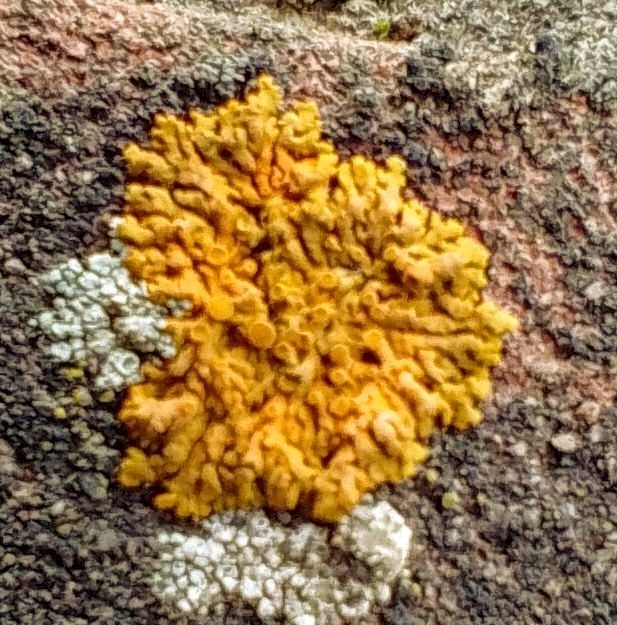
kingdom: Fungi
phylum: Ascomycota
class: Lecanoromycetes
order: Teloschistales
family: Teloschistaceae
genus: Xanthoria
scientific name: Xanthoria elegans
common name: Elegant sunburst lichen
